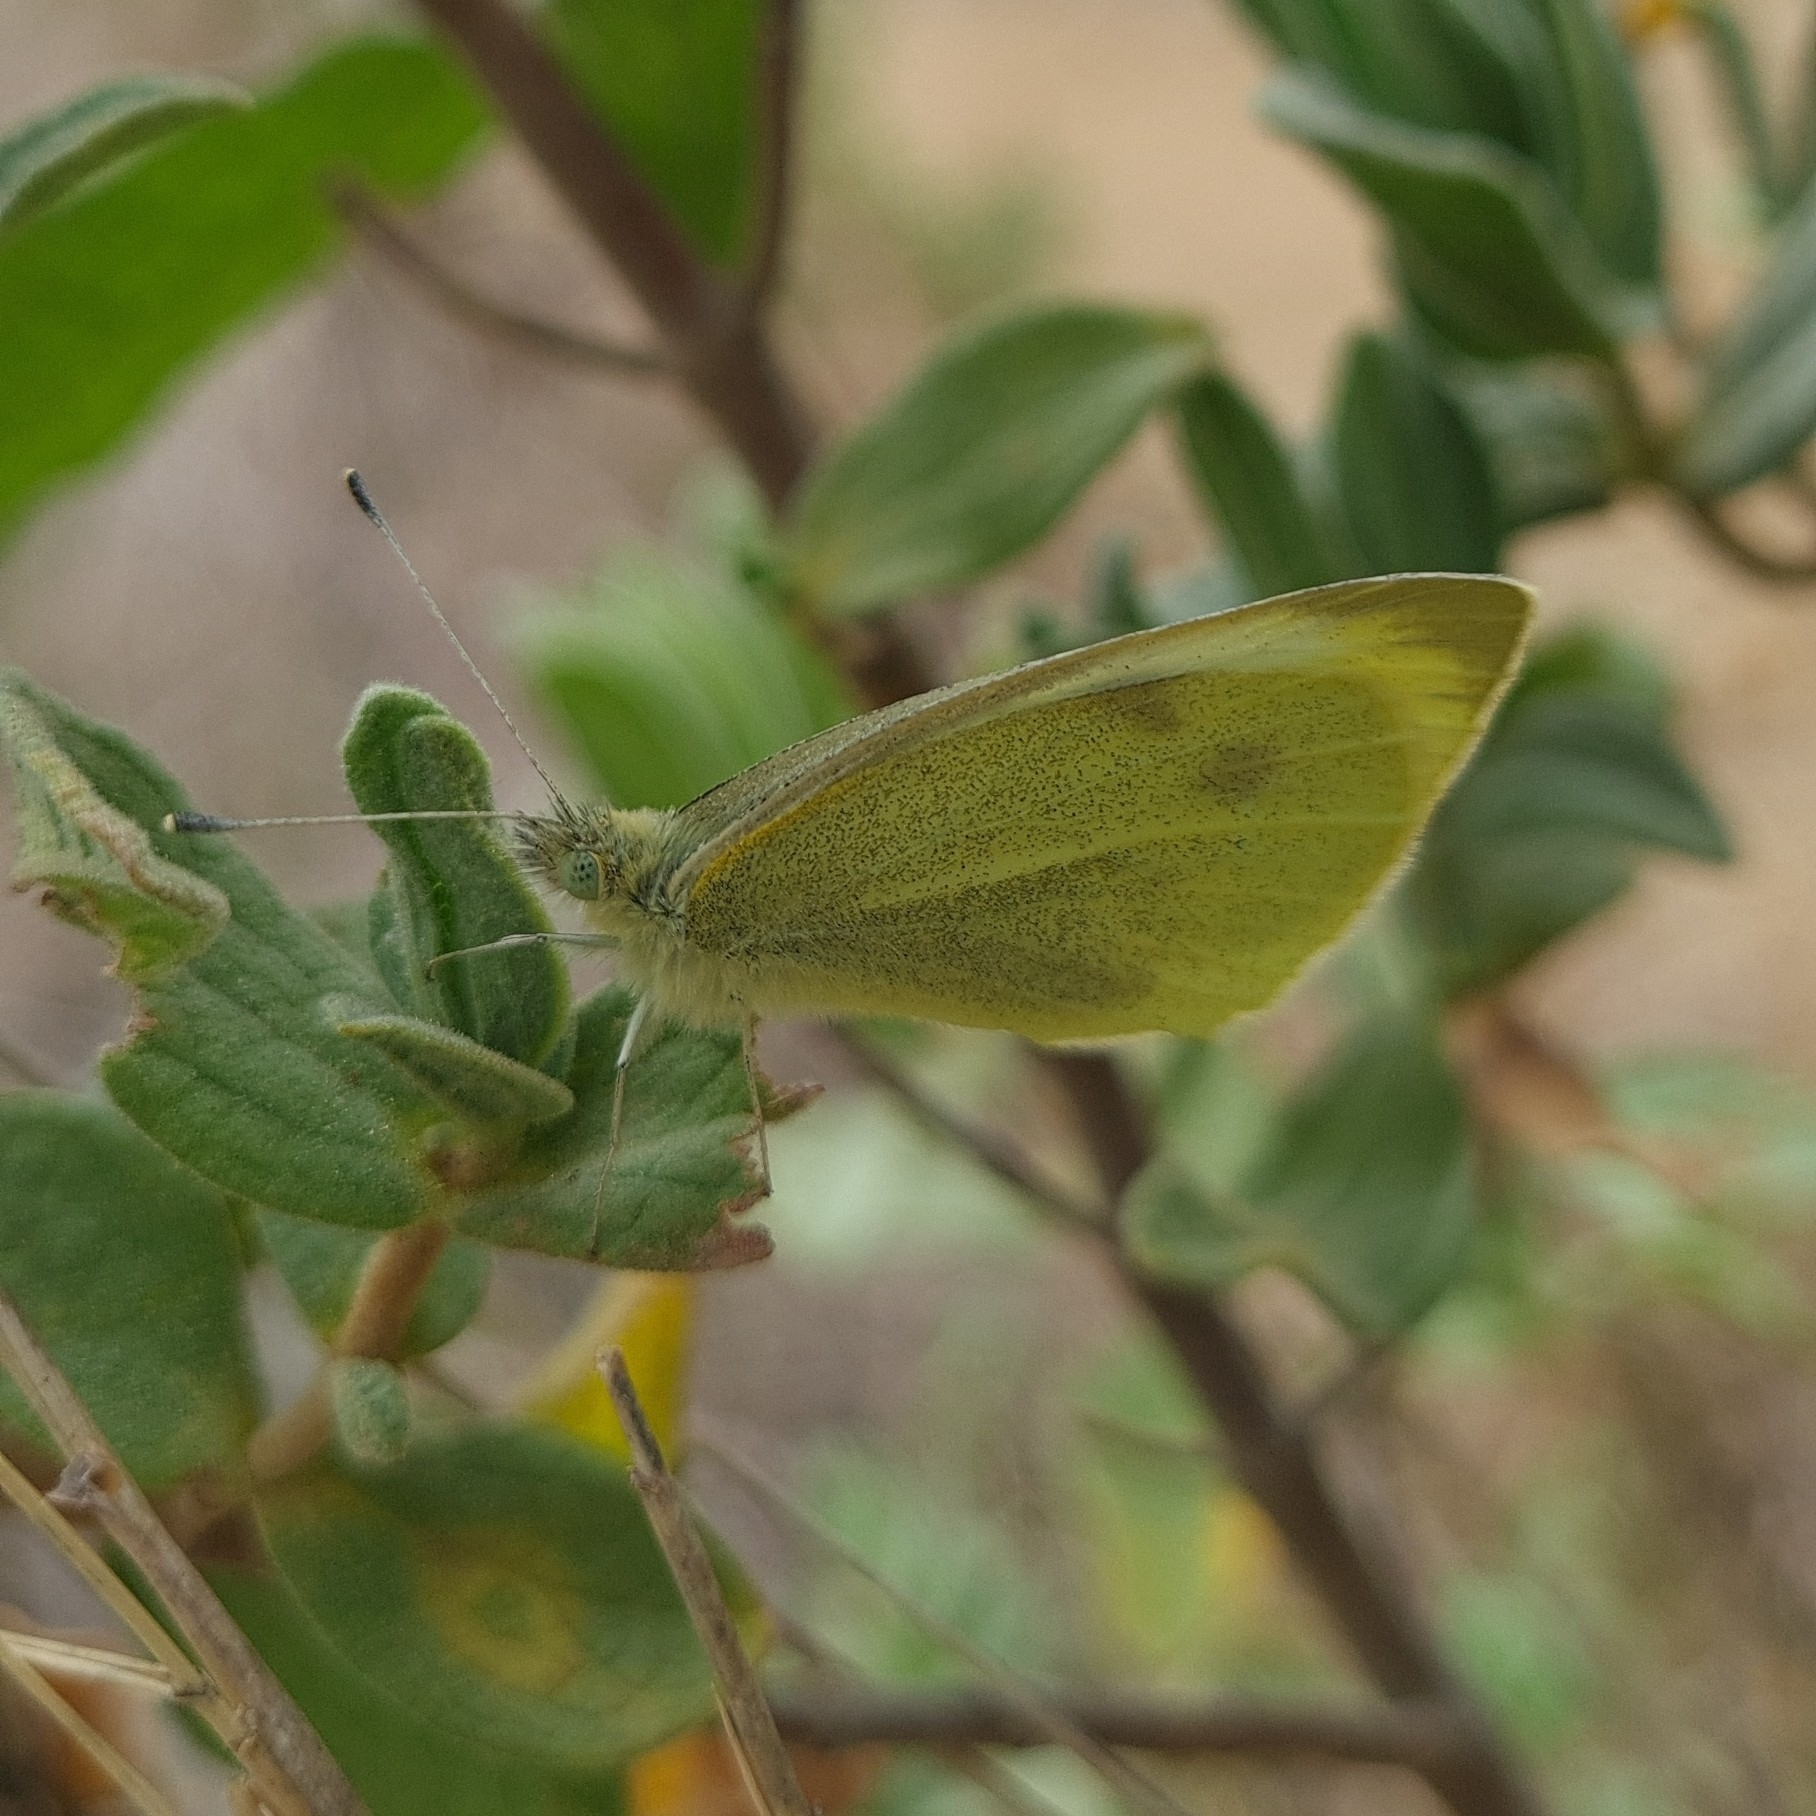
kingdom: Animalia
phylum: Arthropoda
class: Insecta
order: Lepidoptera
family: Pieridae
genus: Pieris
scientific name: Pieris rapae
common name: Small white
